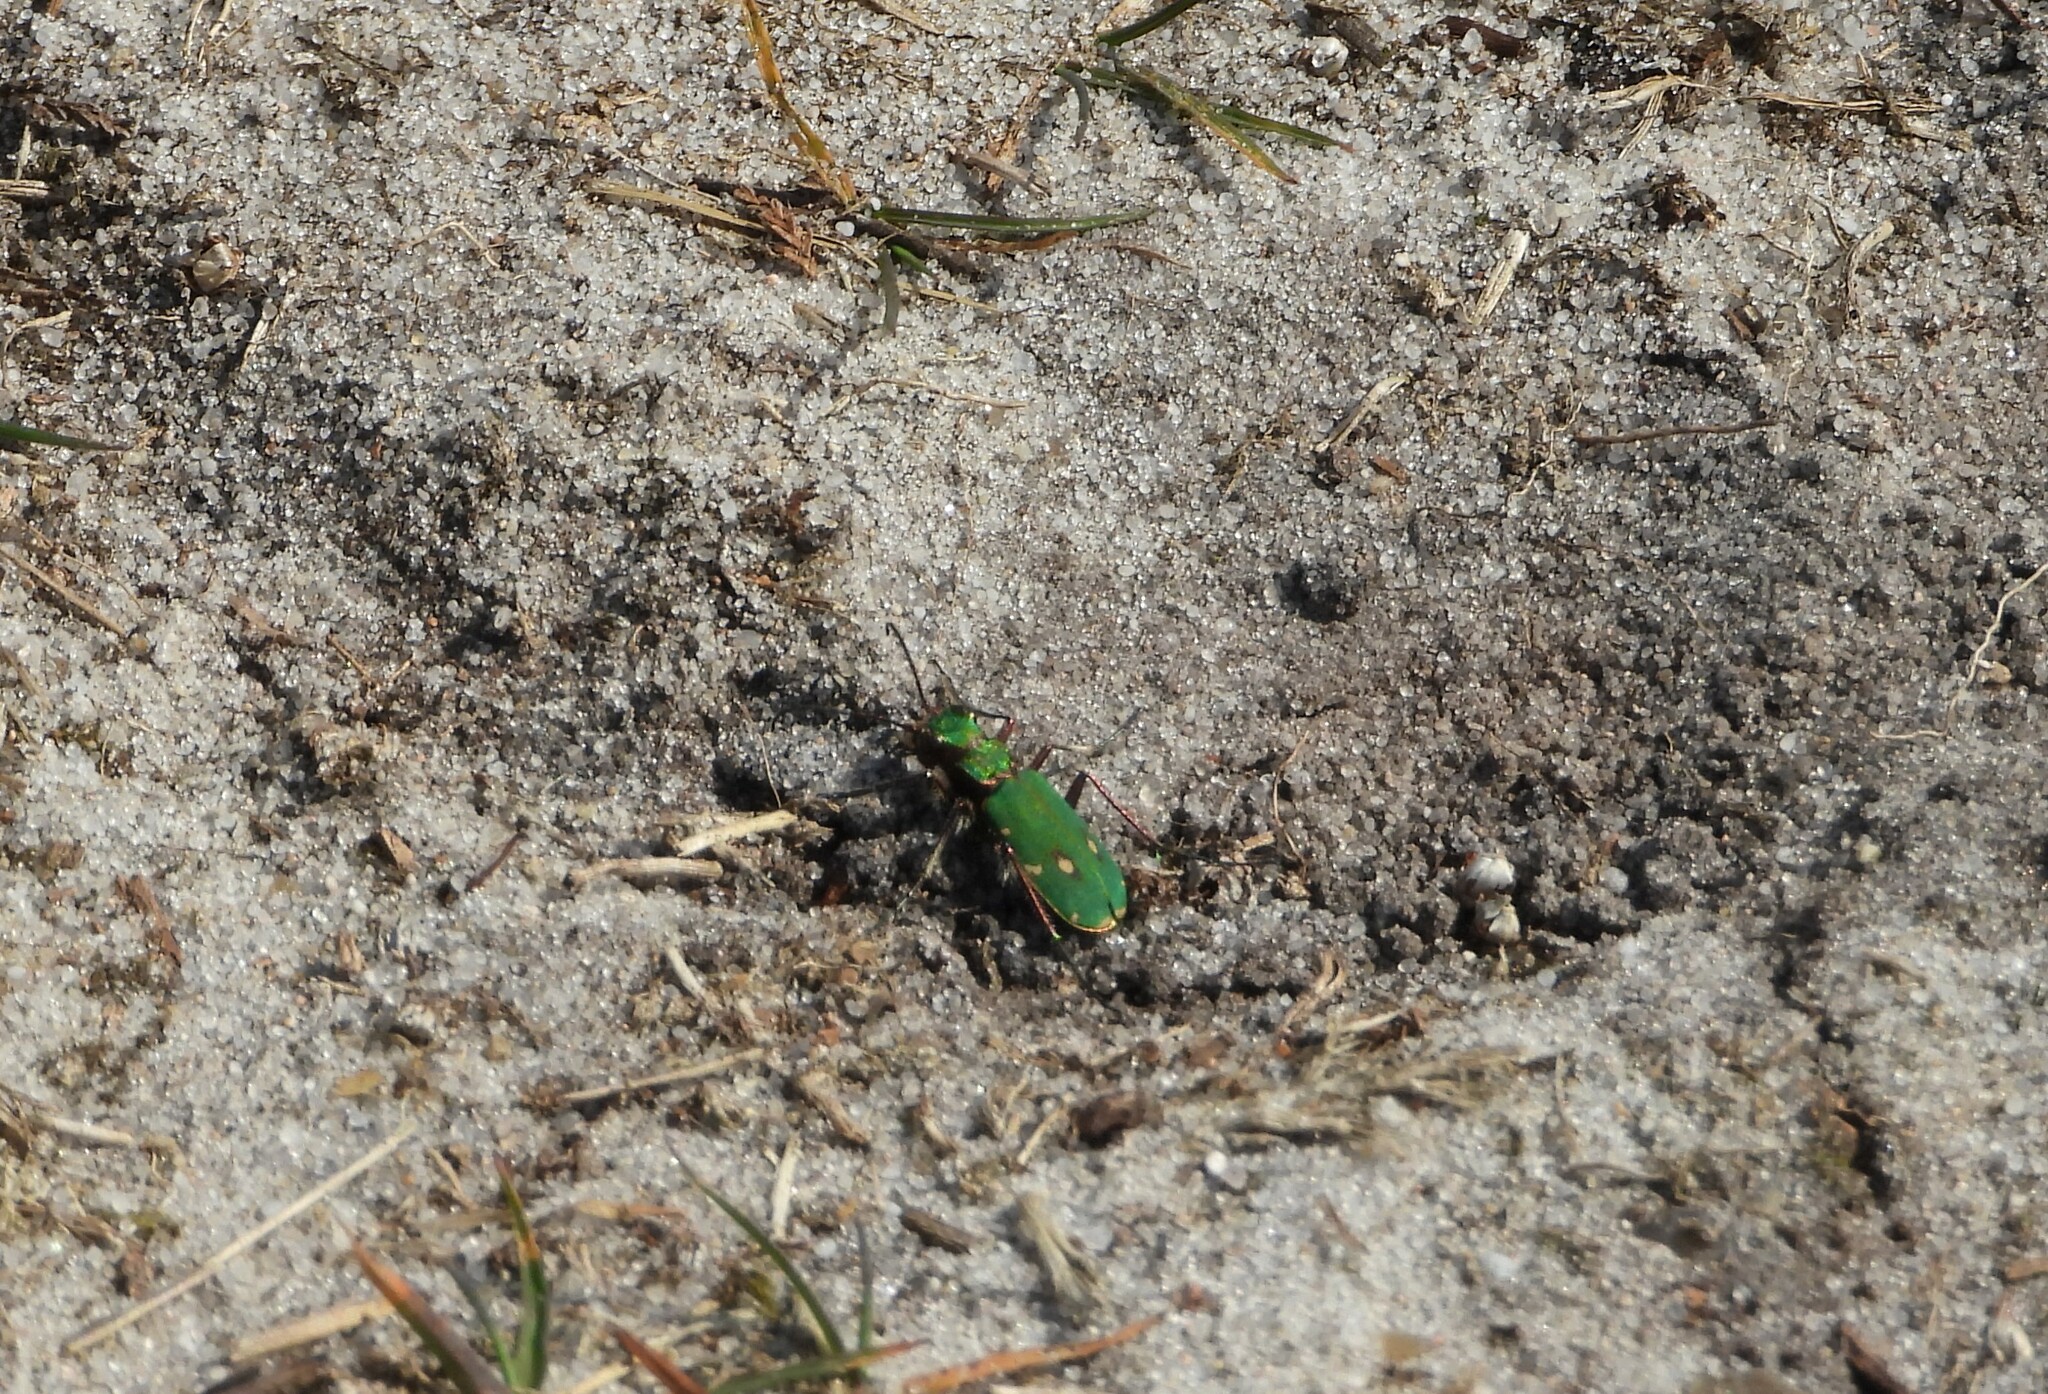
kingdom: Animalia
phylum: Arthropoda
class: Insecta
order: Coleoptera
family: Carabidae
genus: Cicindela
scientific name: Cicindela campestris
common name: Common tiger beetle
